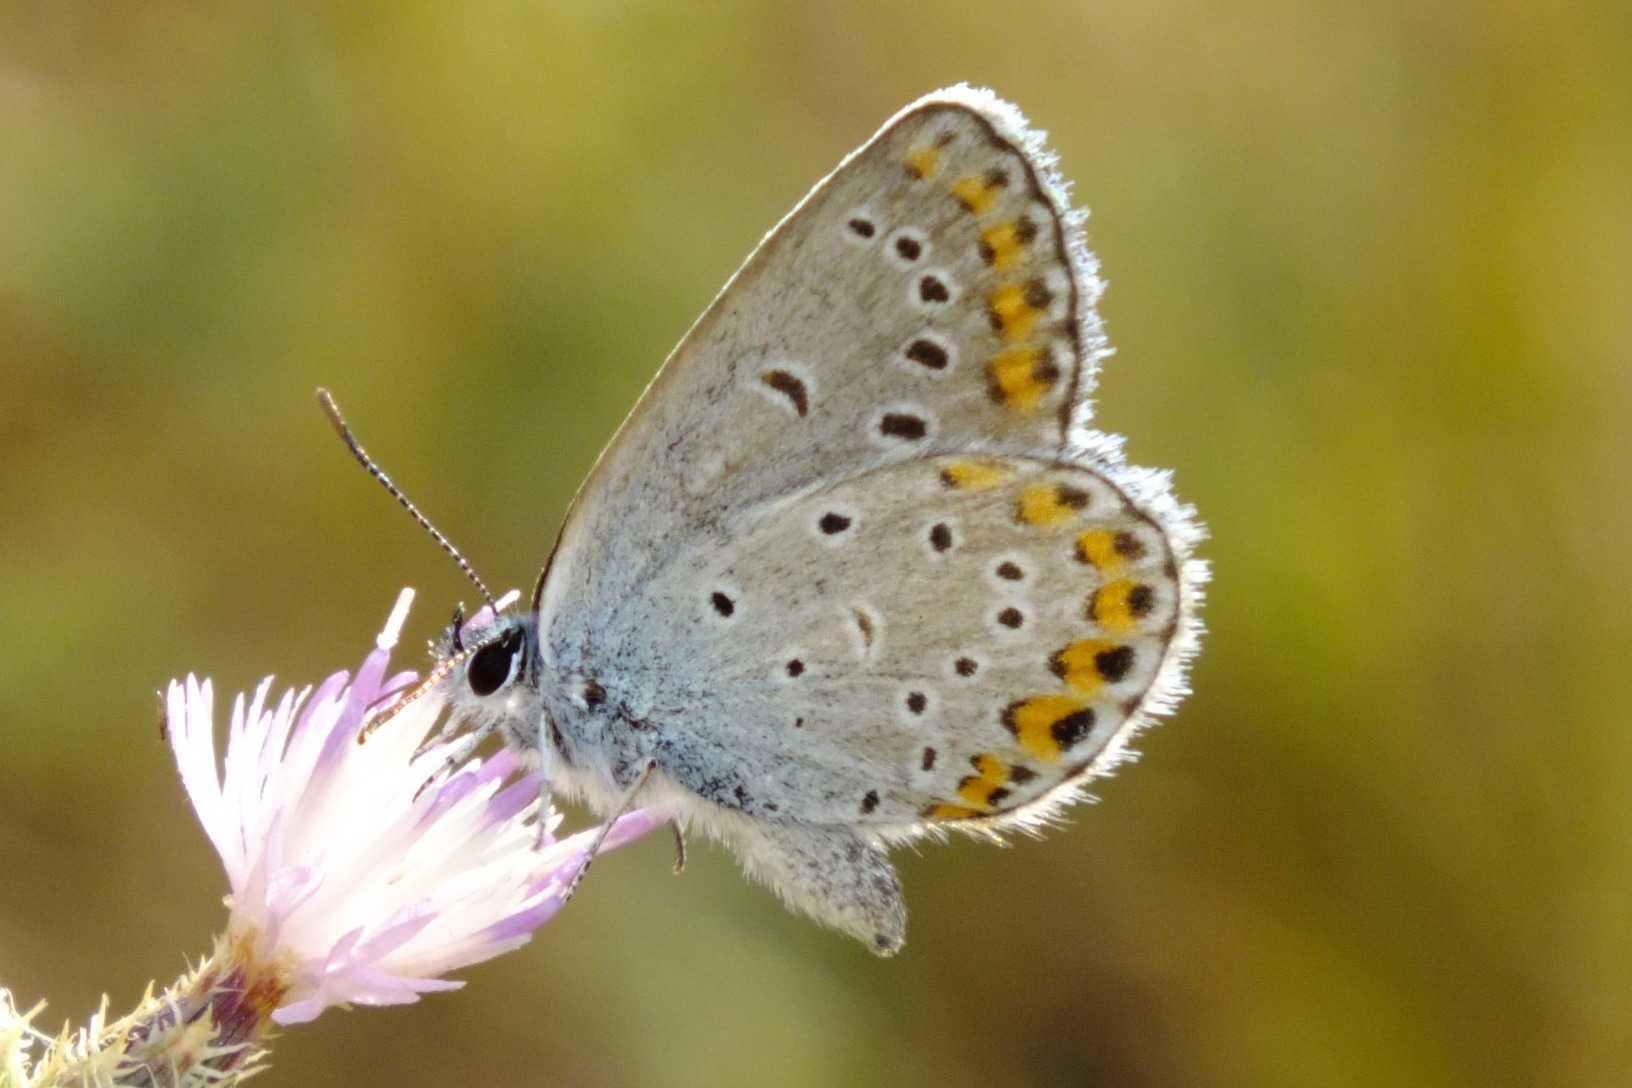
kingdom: Animalia
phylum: Arthropoda
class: Insecta
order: Lepidoptera
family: Lycaenidae
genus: Plebejus
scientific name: Plebejus argyrognomon
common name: Reverdin's blue
